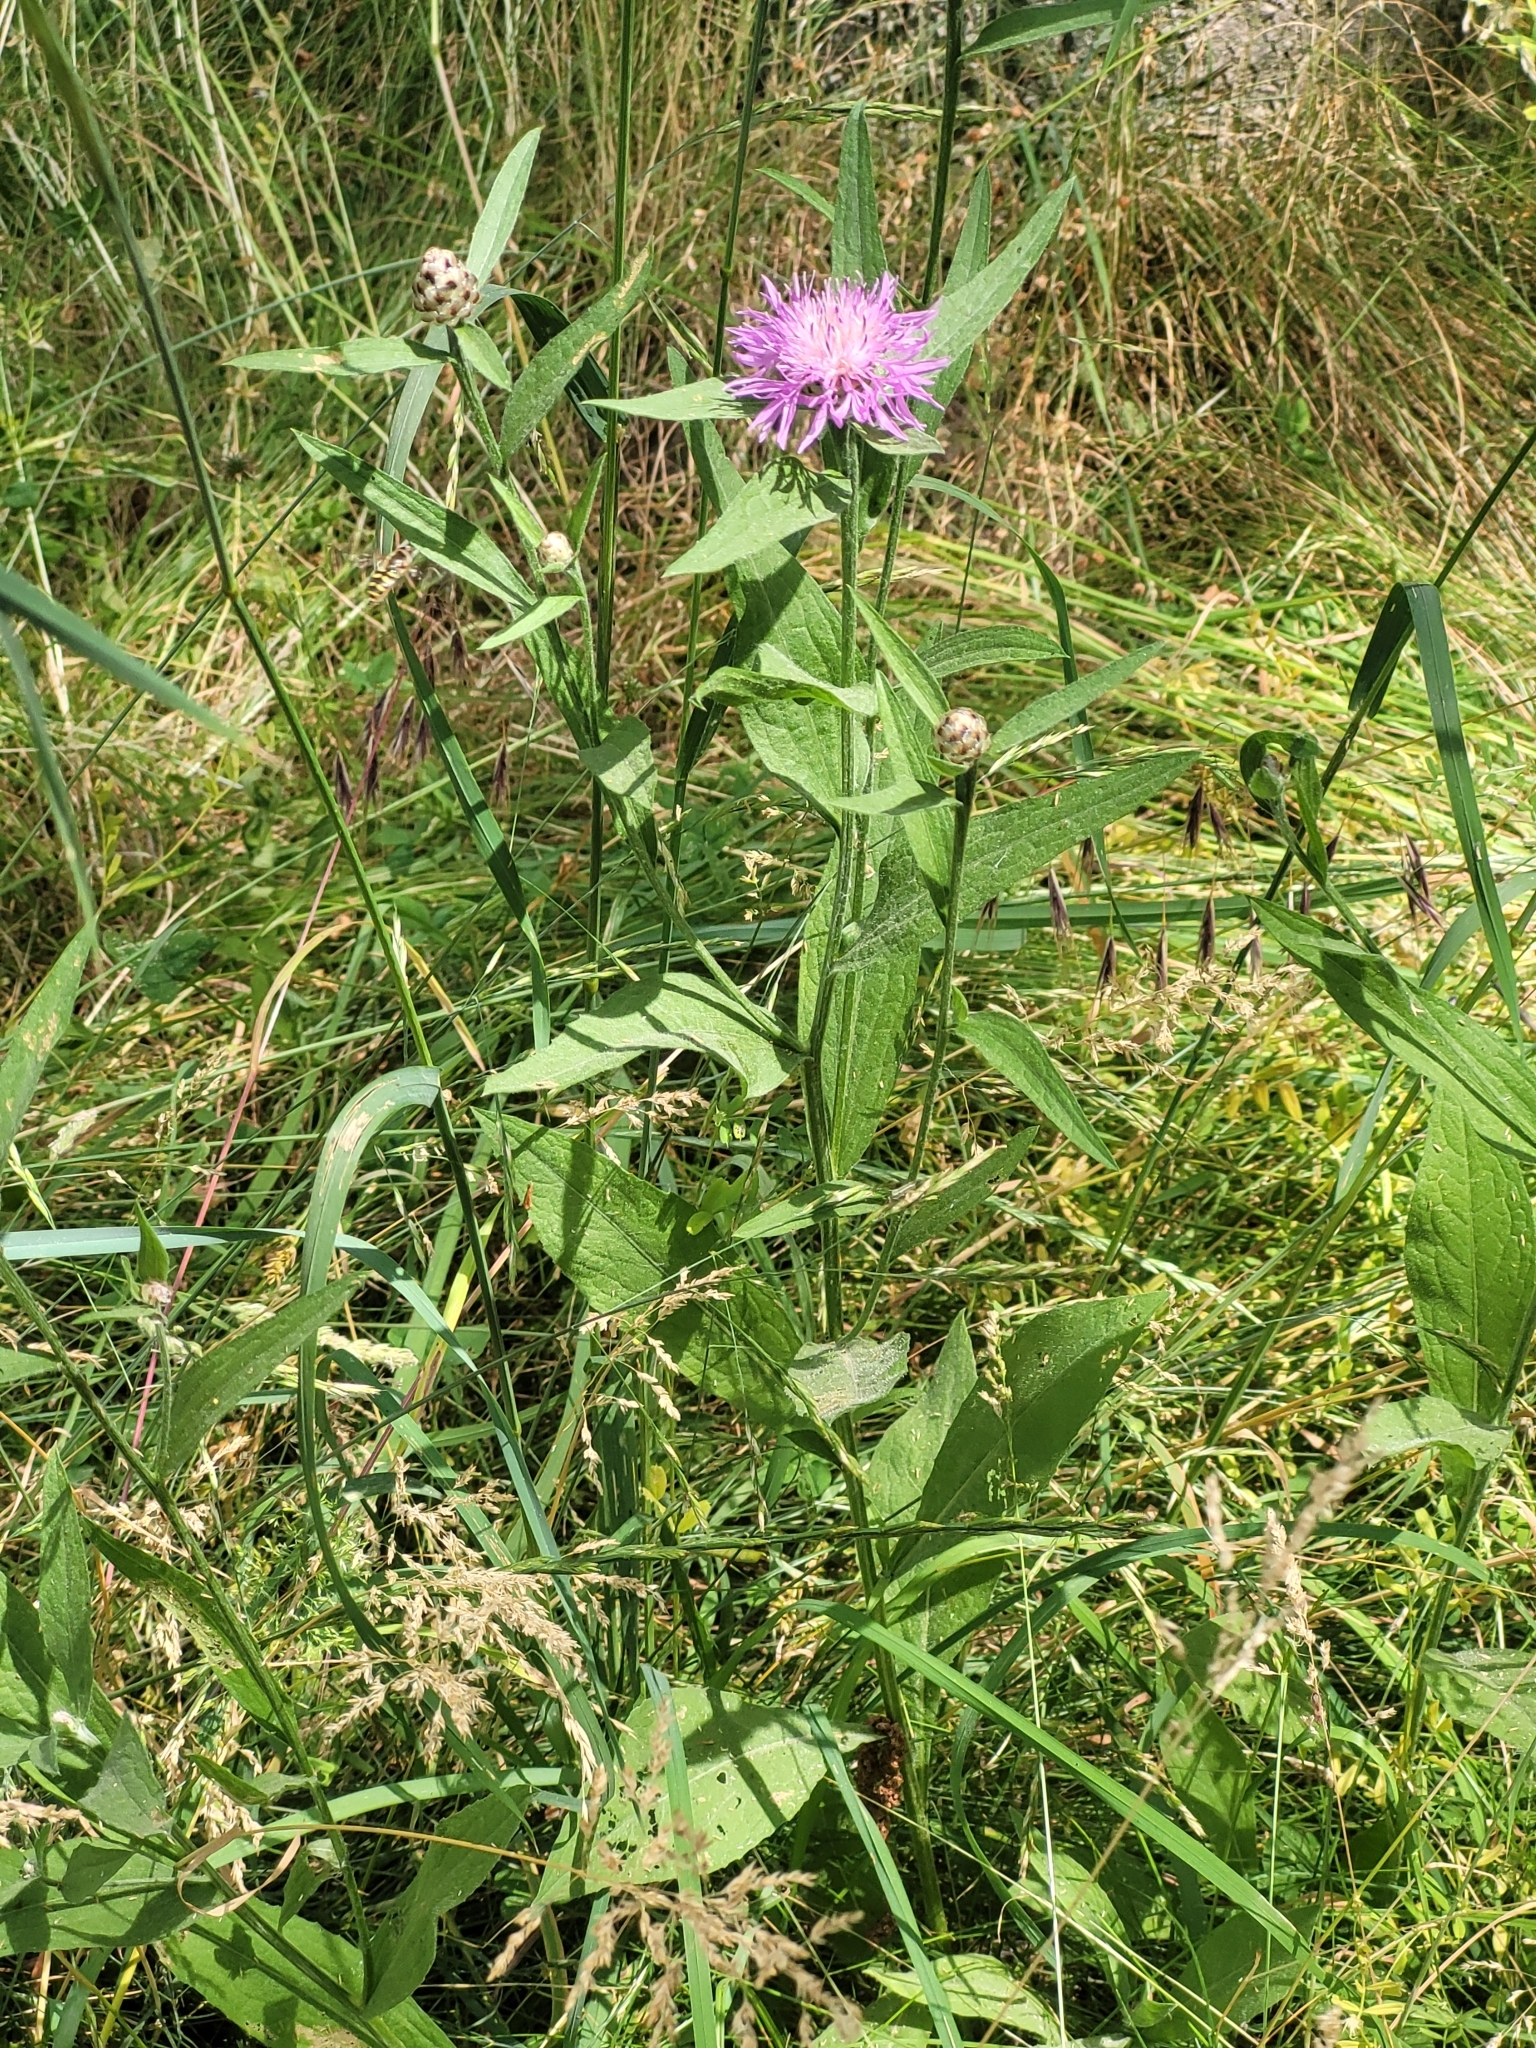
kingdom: Plantae
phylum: Tracheophyta
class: Magnoliopsida
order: Asterales
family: Asteraceae
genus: Centaurea
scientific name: Centaurea jacea
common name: Brown knapweed
